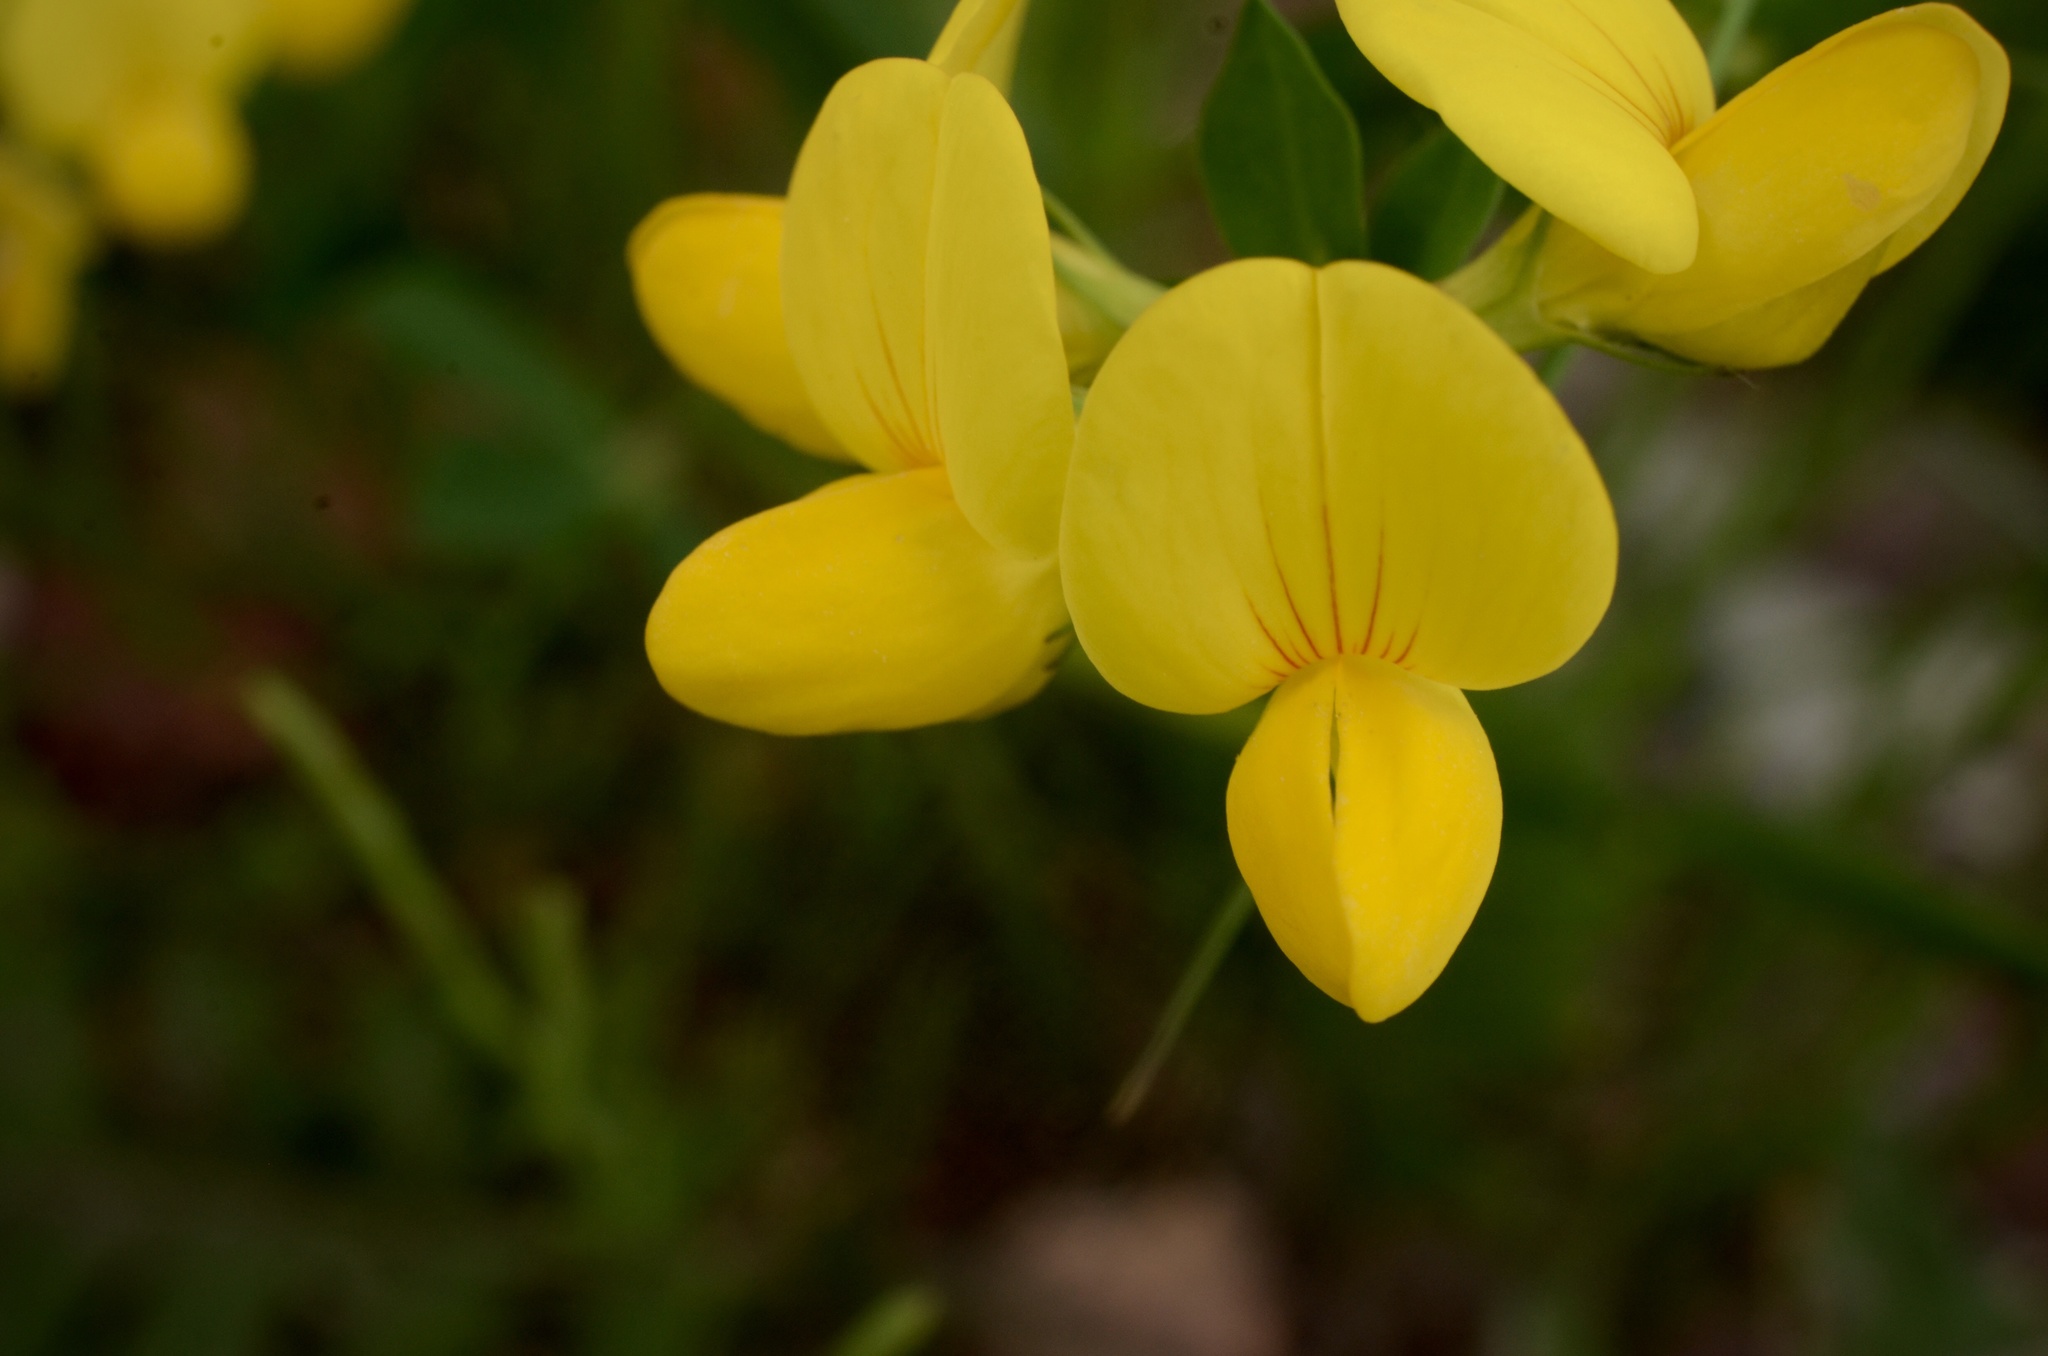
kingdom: Plantae
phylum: Tracheophyta
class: Magnoliopsida
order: Fabales
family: Fabaceae
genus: Lotus
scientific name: Lotus corniculatus
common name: Common bird's-foot-trefoil
